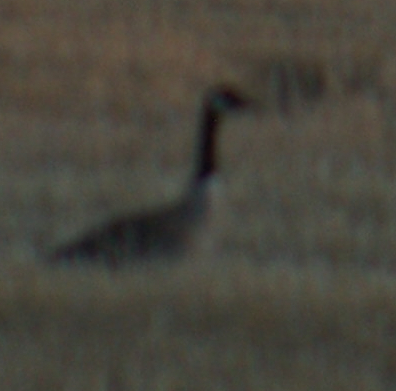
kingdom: Animalia
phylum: Chordata
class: Aves
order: Anseriformes
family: Anatidae
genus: Branta
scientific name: Branta canadensis
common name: Canada goose
